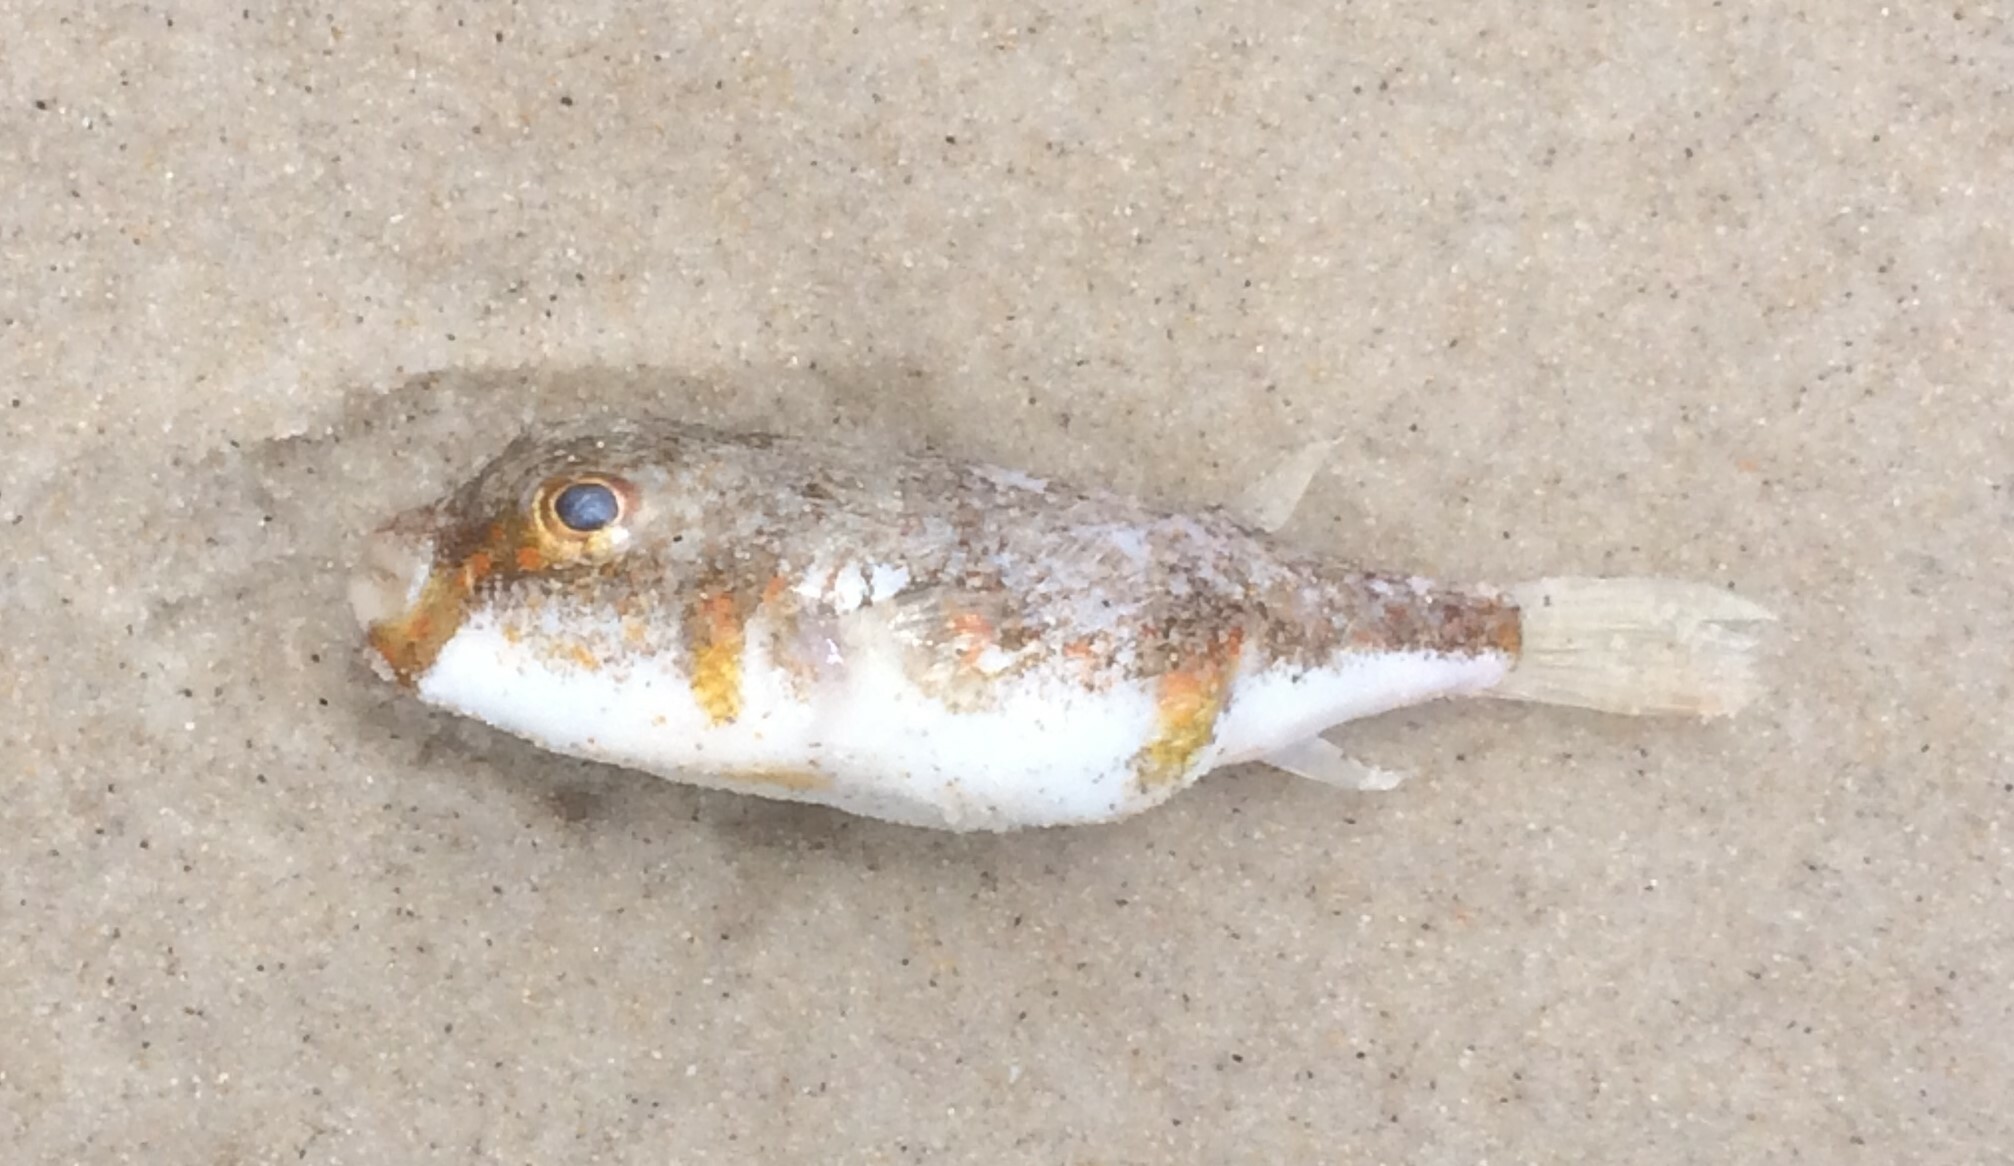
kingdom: Animalia
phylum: Chordata
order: Tetraodontiformes
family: Tetraodontidae
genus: Polyspina
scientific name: Polyspina piosae
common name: Orange-barred pufferfish
